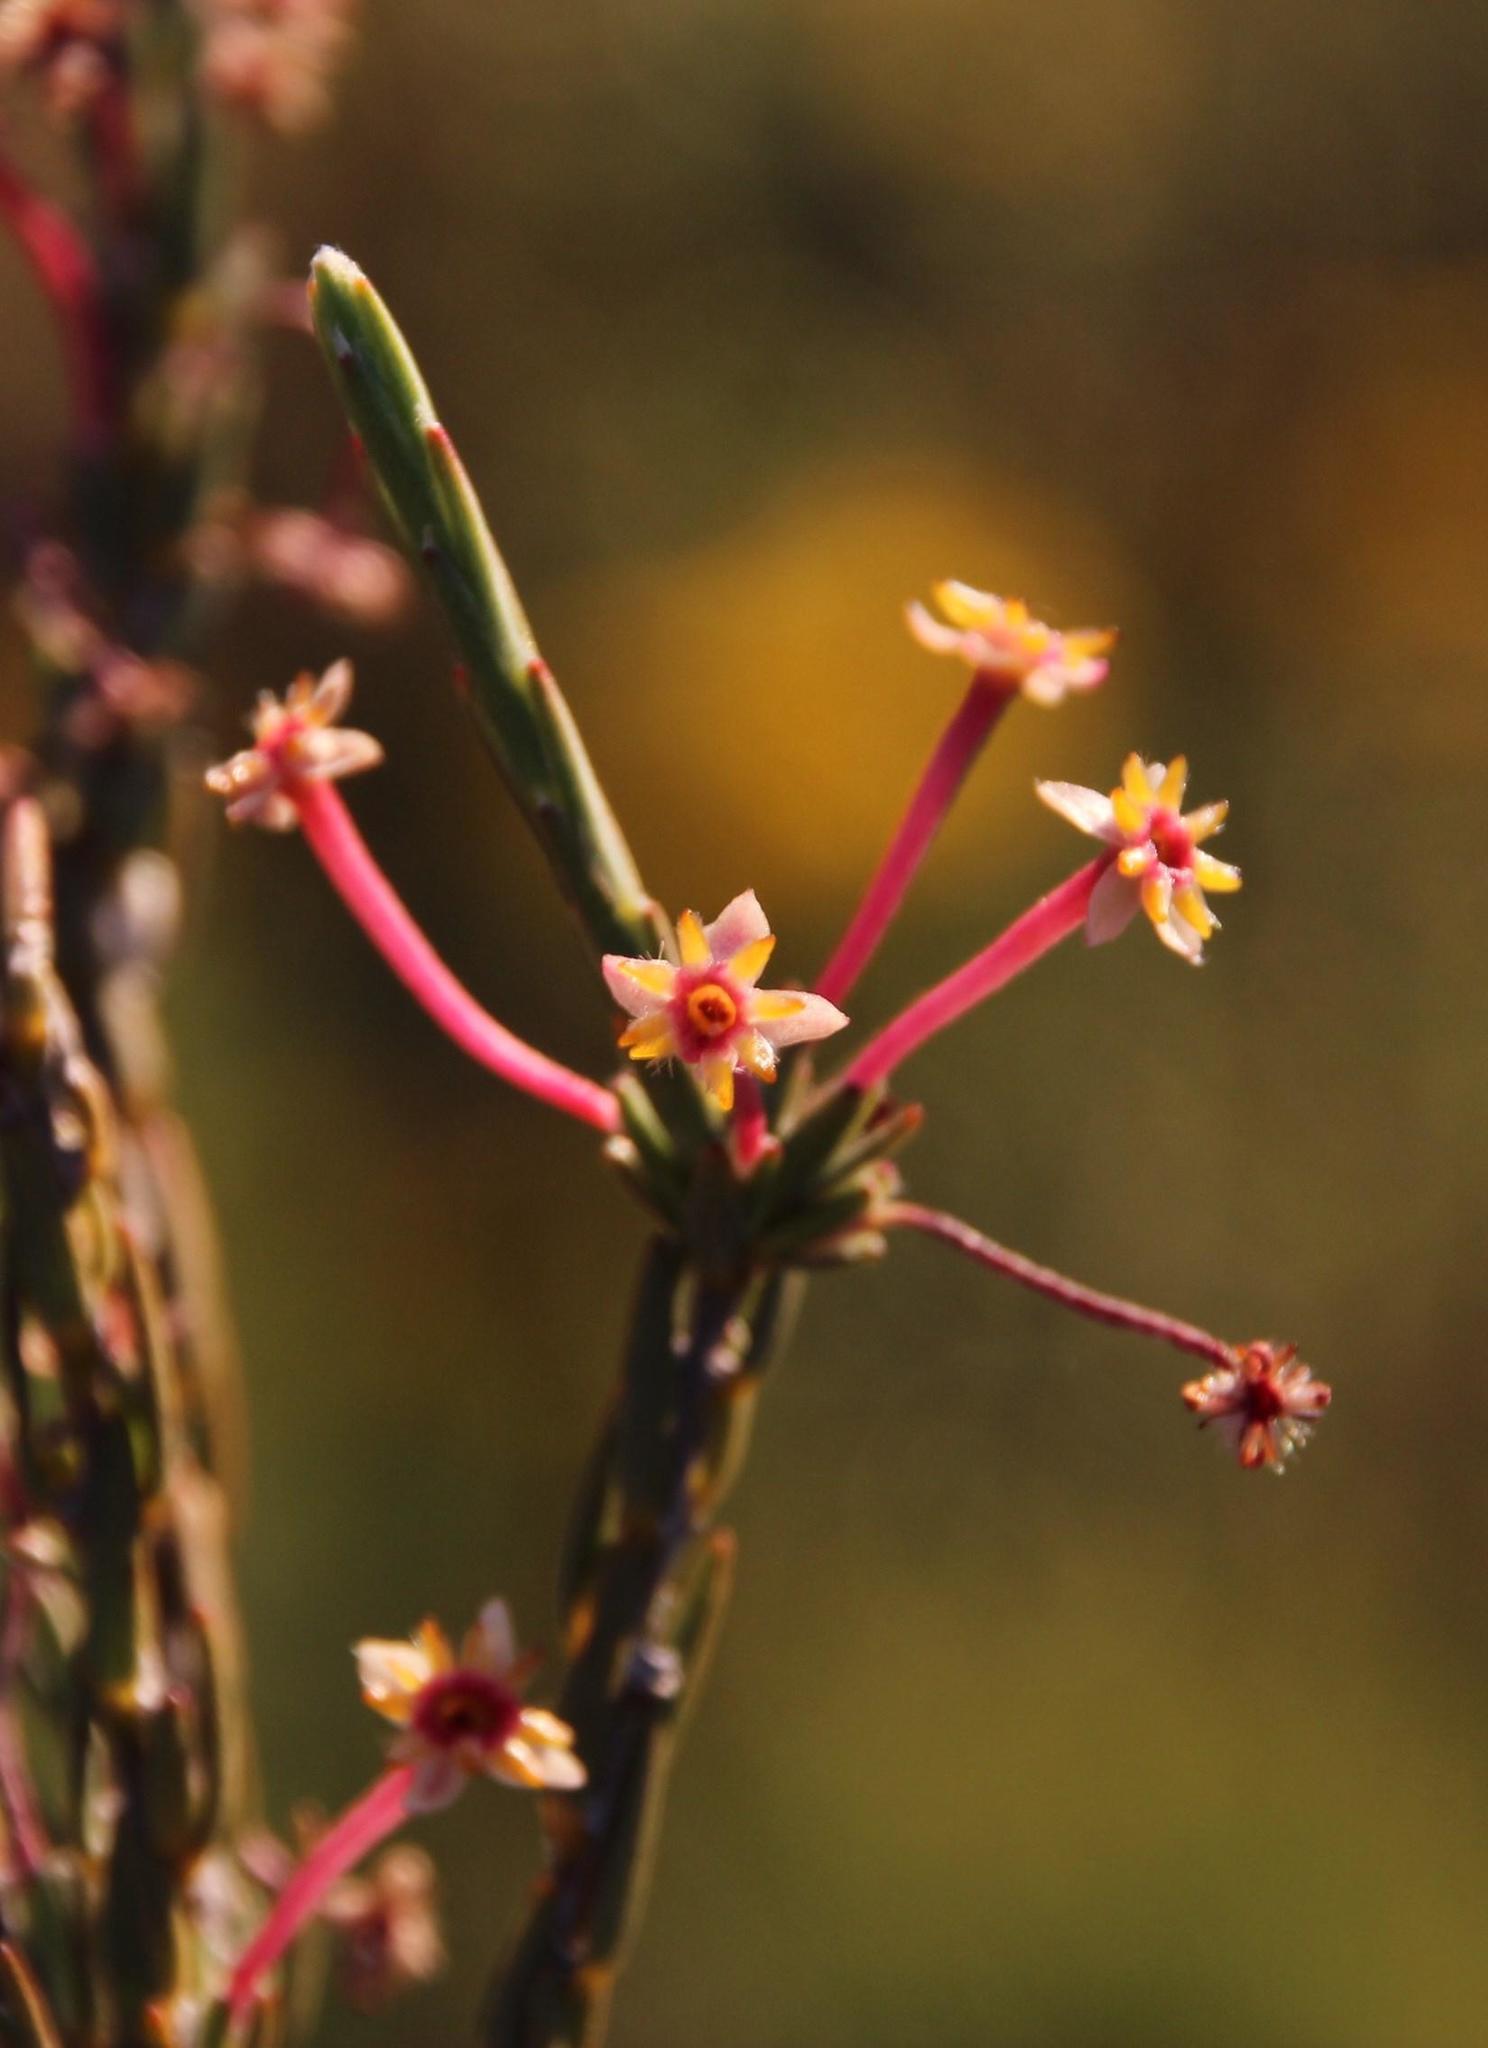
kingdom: Plantae
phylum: Tracheophyta
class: Magnoliopsida
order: Malvales
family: Thymelaeaceae
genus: Struthiola
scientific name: Struthiola eckloniana
